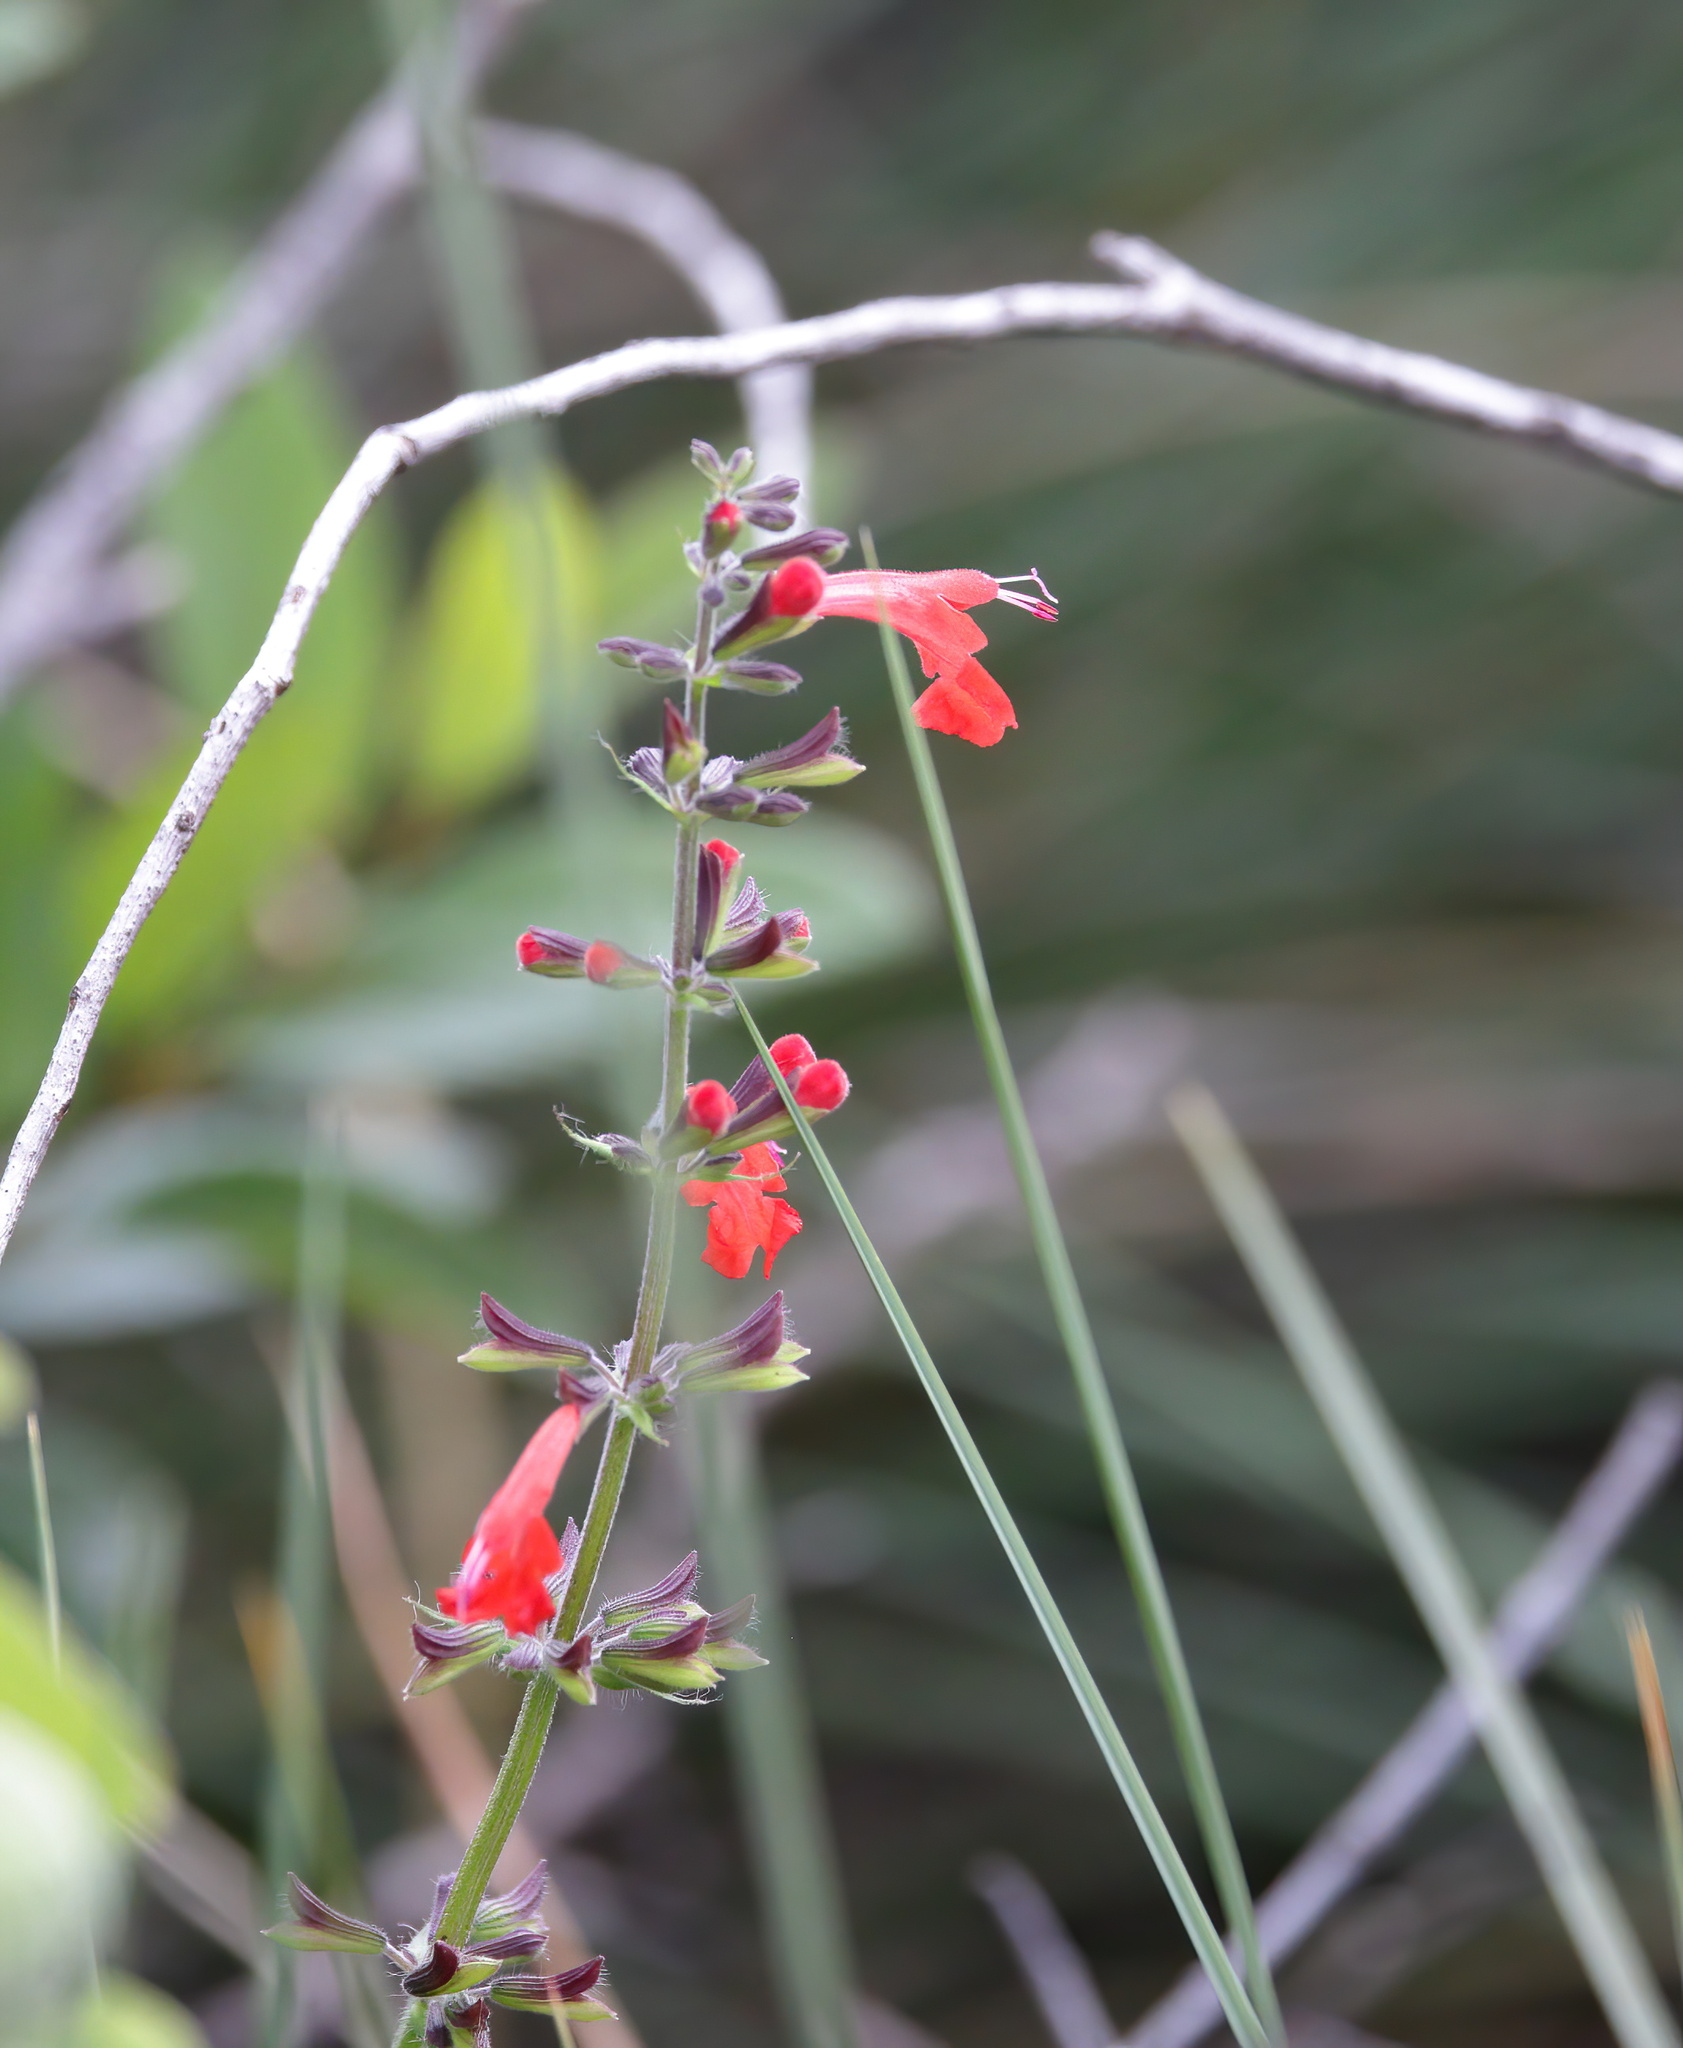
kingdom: Plantae
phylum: Tracheophyta
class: Magnoliopsida
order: Lamiales
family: Lamiaceae
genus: Salvia
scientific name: Salvia coccinea
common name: Blood sage
